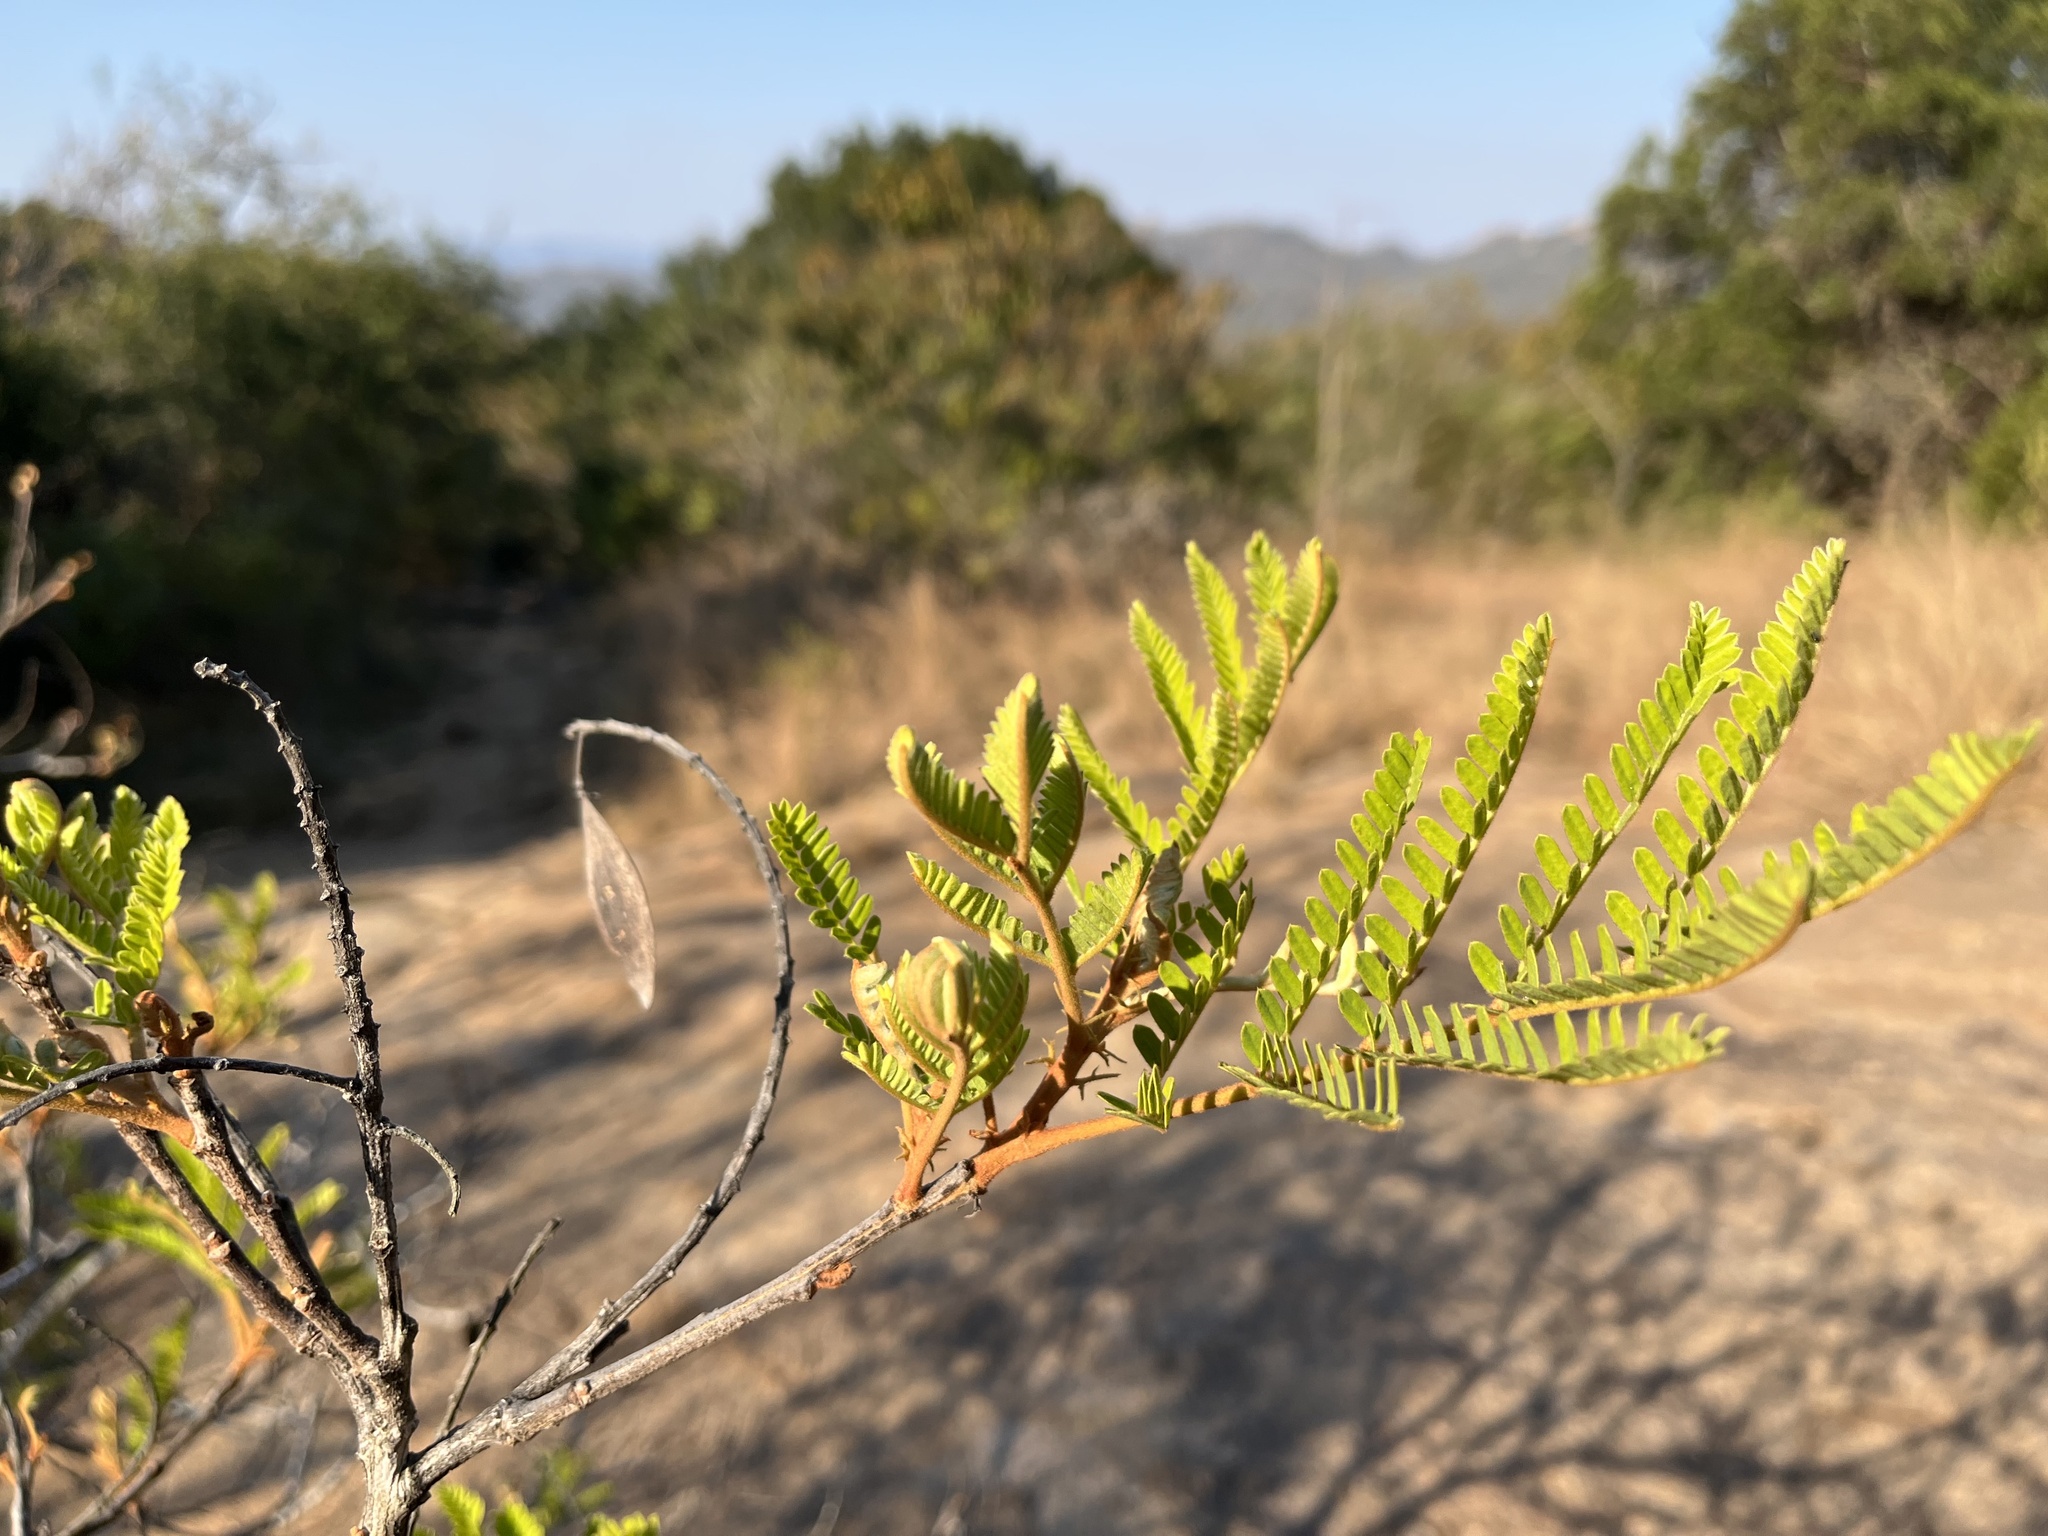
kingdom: Plantae
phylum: Tracheophyta
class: Magnoliopsida
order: Fabales
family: Fabaceae
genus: Peltophorum
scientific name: Peltophorum africanum
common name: African black wattle
